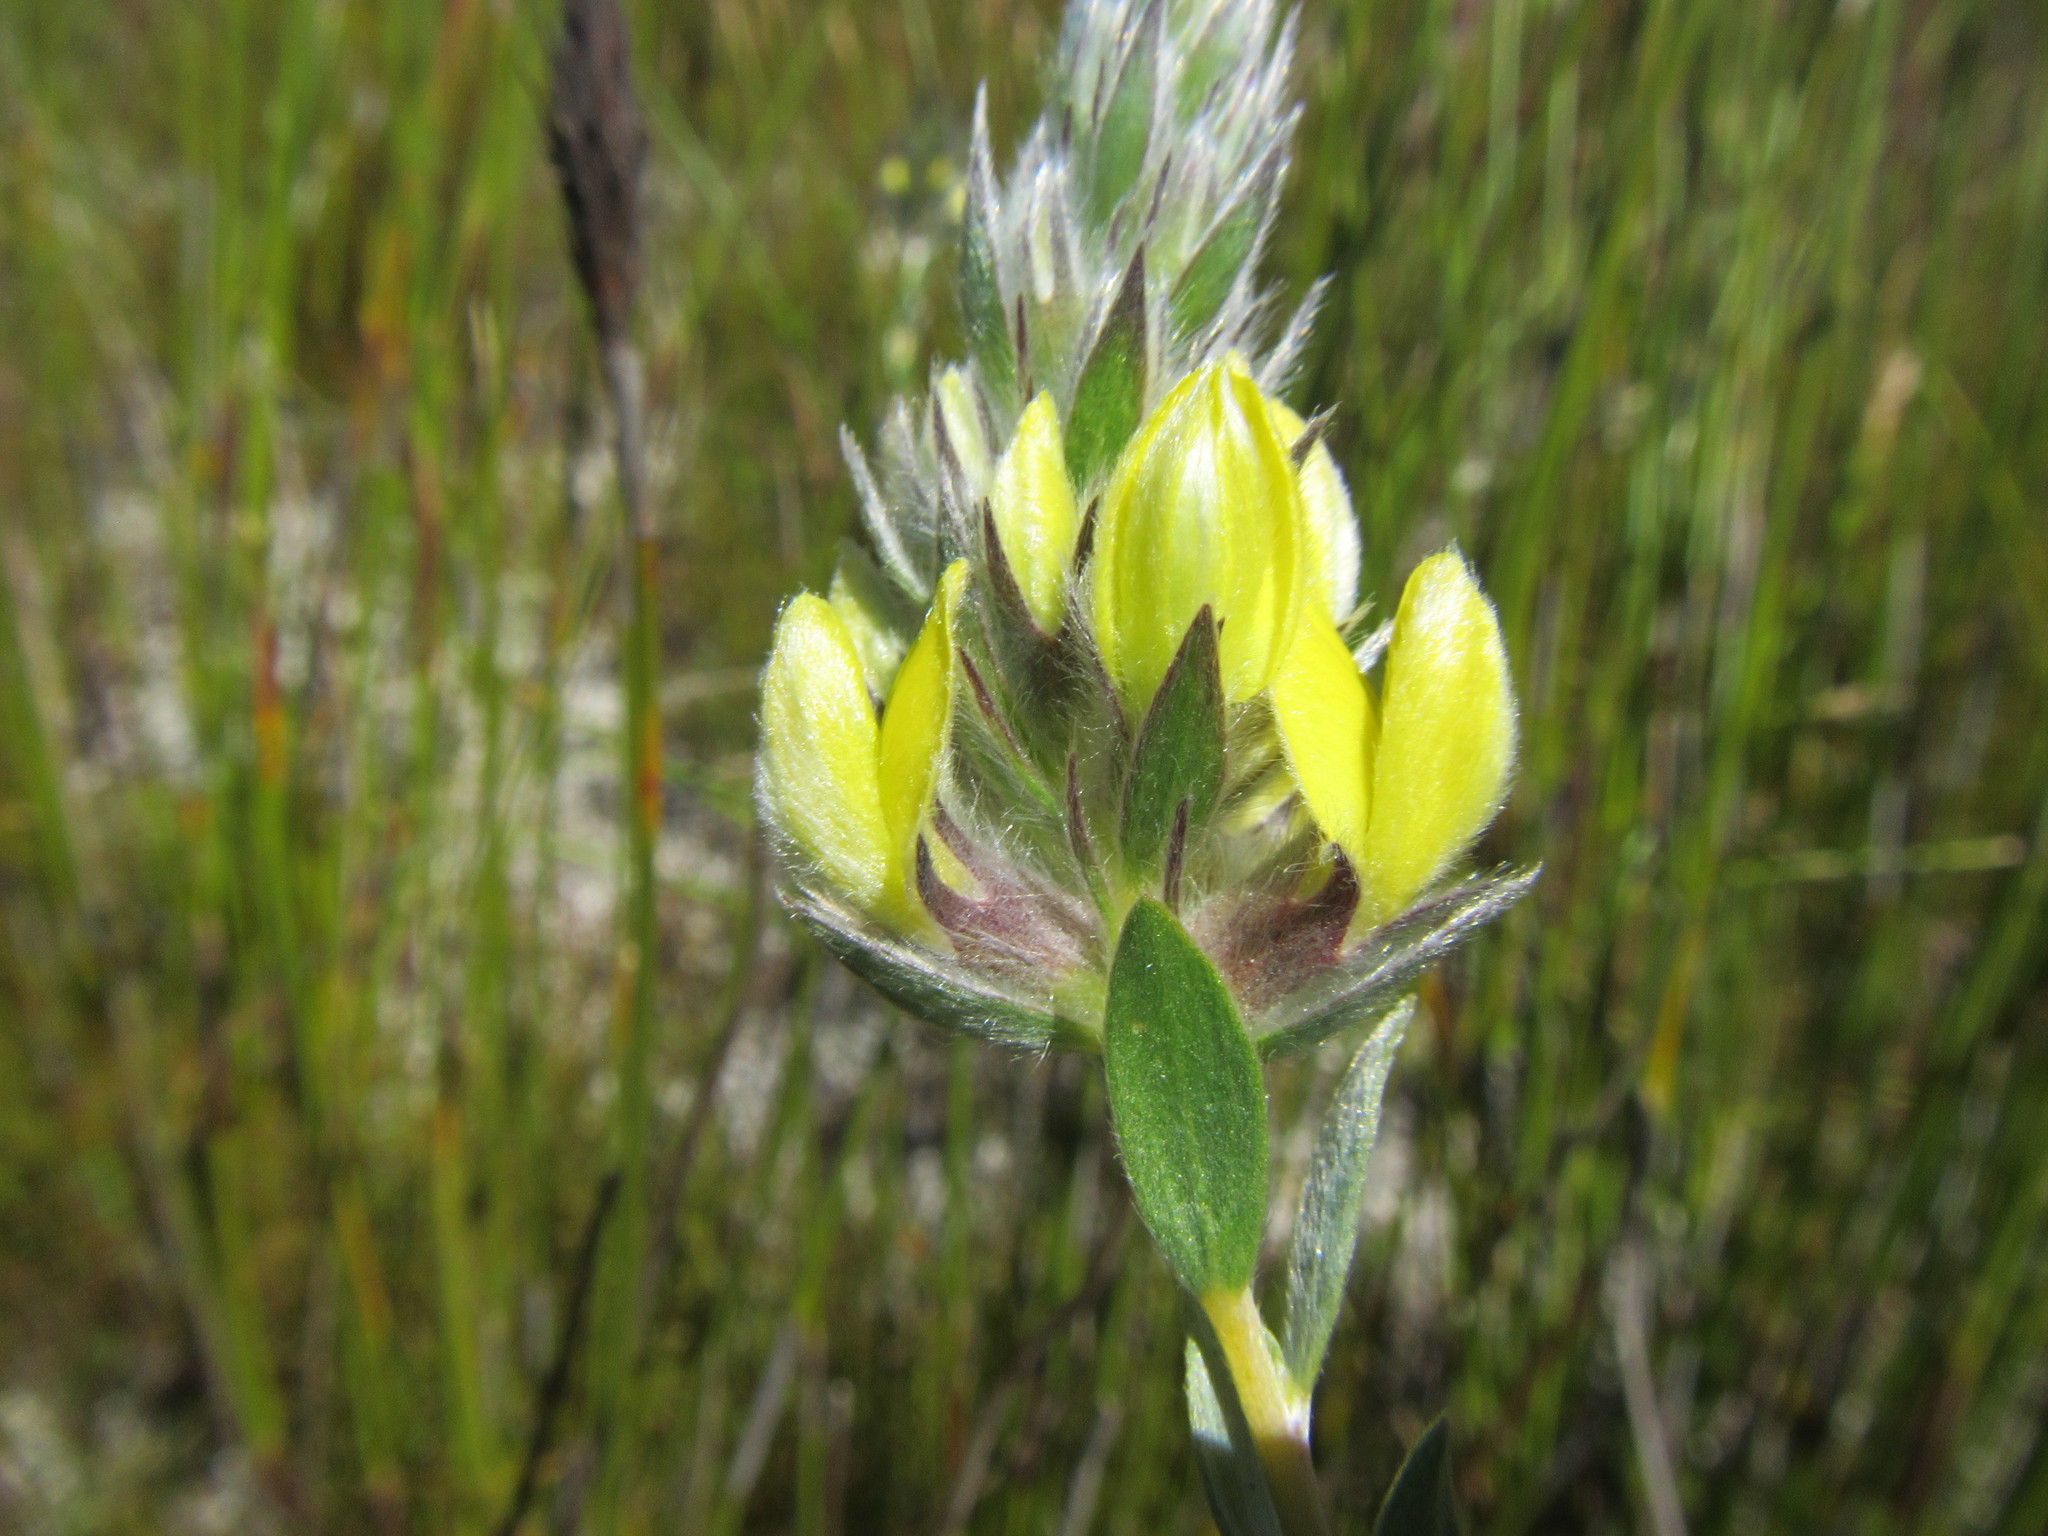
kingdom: Plantae
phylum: Tracheophyta
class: Magnoliopsida
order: Fabales
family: Fabaceae
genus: Aspalathus
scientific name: Aspalathus sericea
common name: Silky pea
